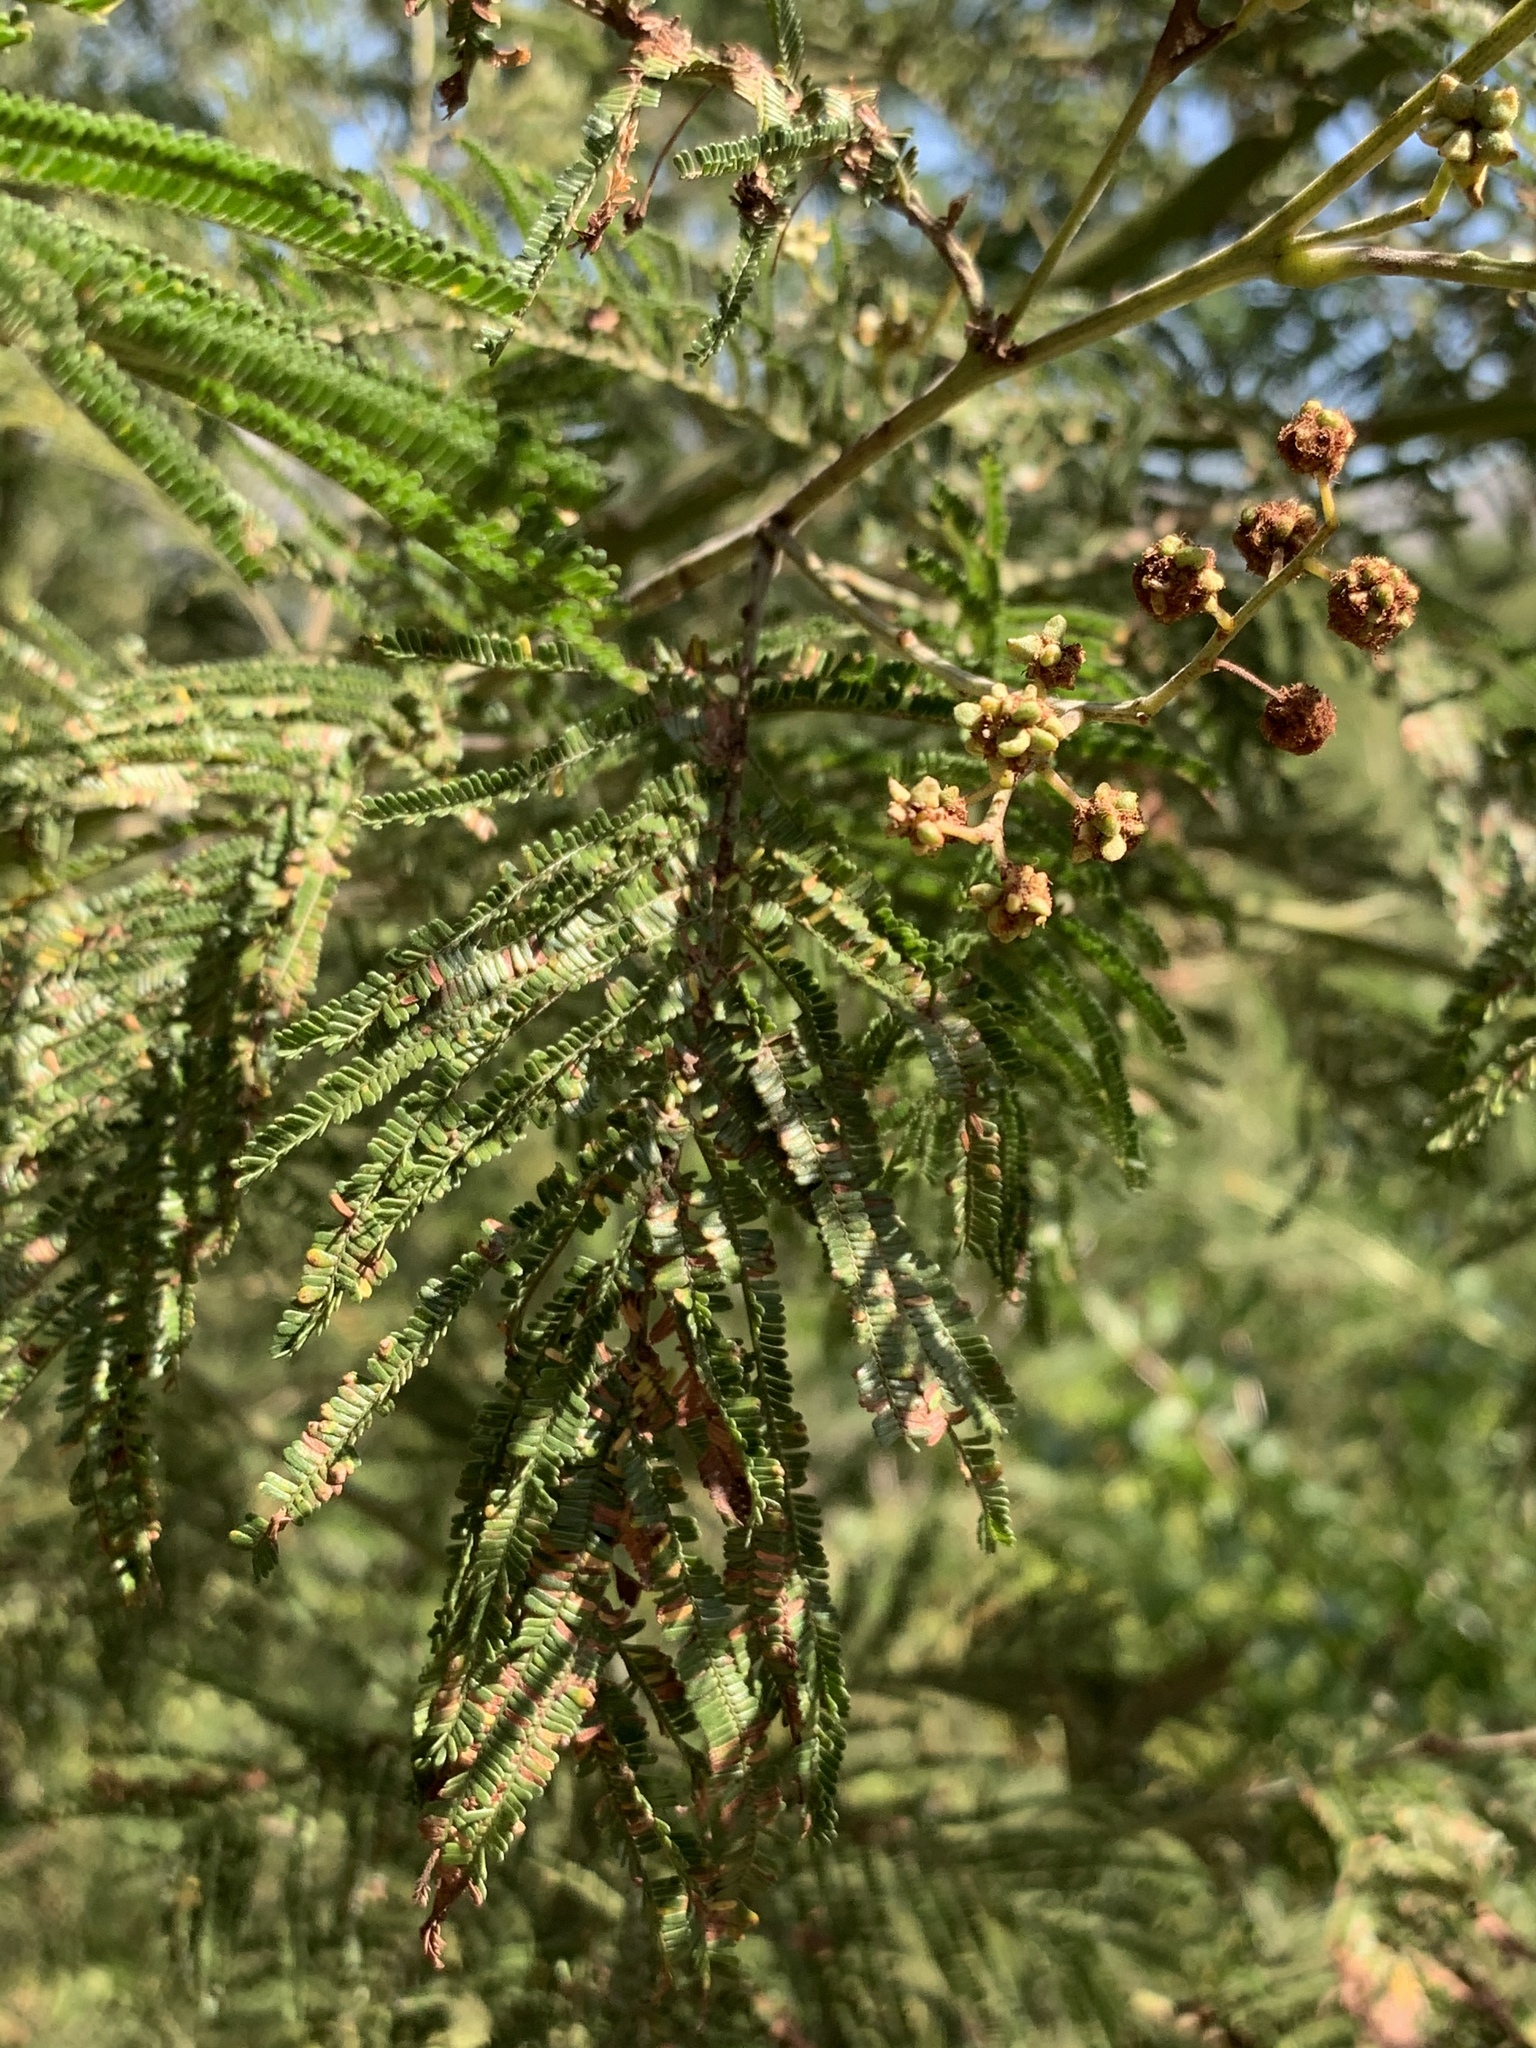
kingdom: Plantae
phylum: Tracheophyta
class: Magnoliopsida
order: Fabales
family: Fabaceae
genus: Acacia
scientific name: Acacia mearnsii
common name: Black wattle
